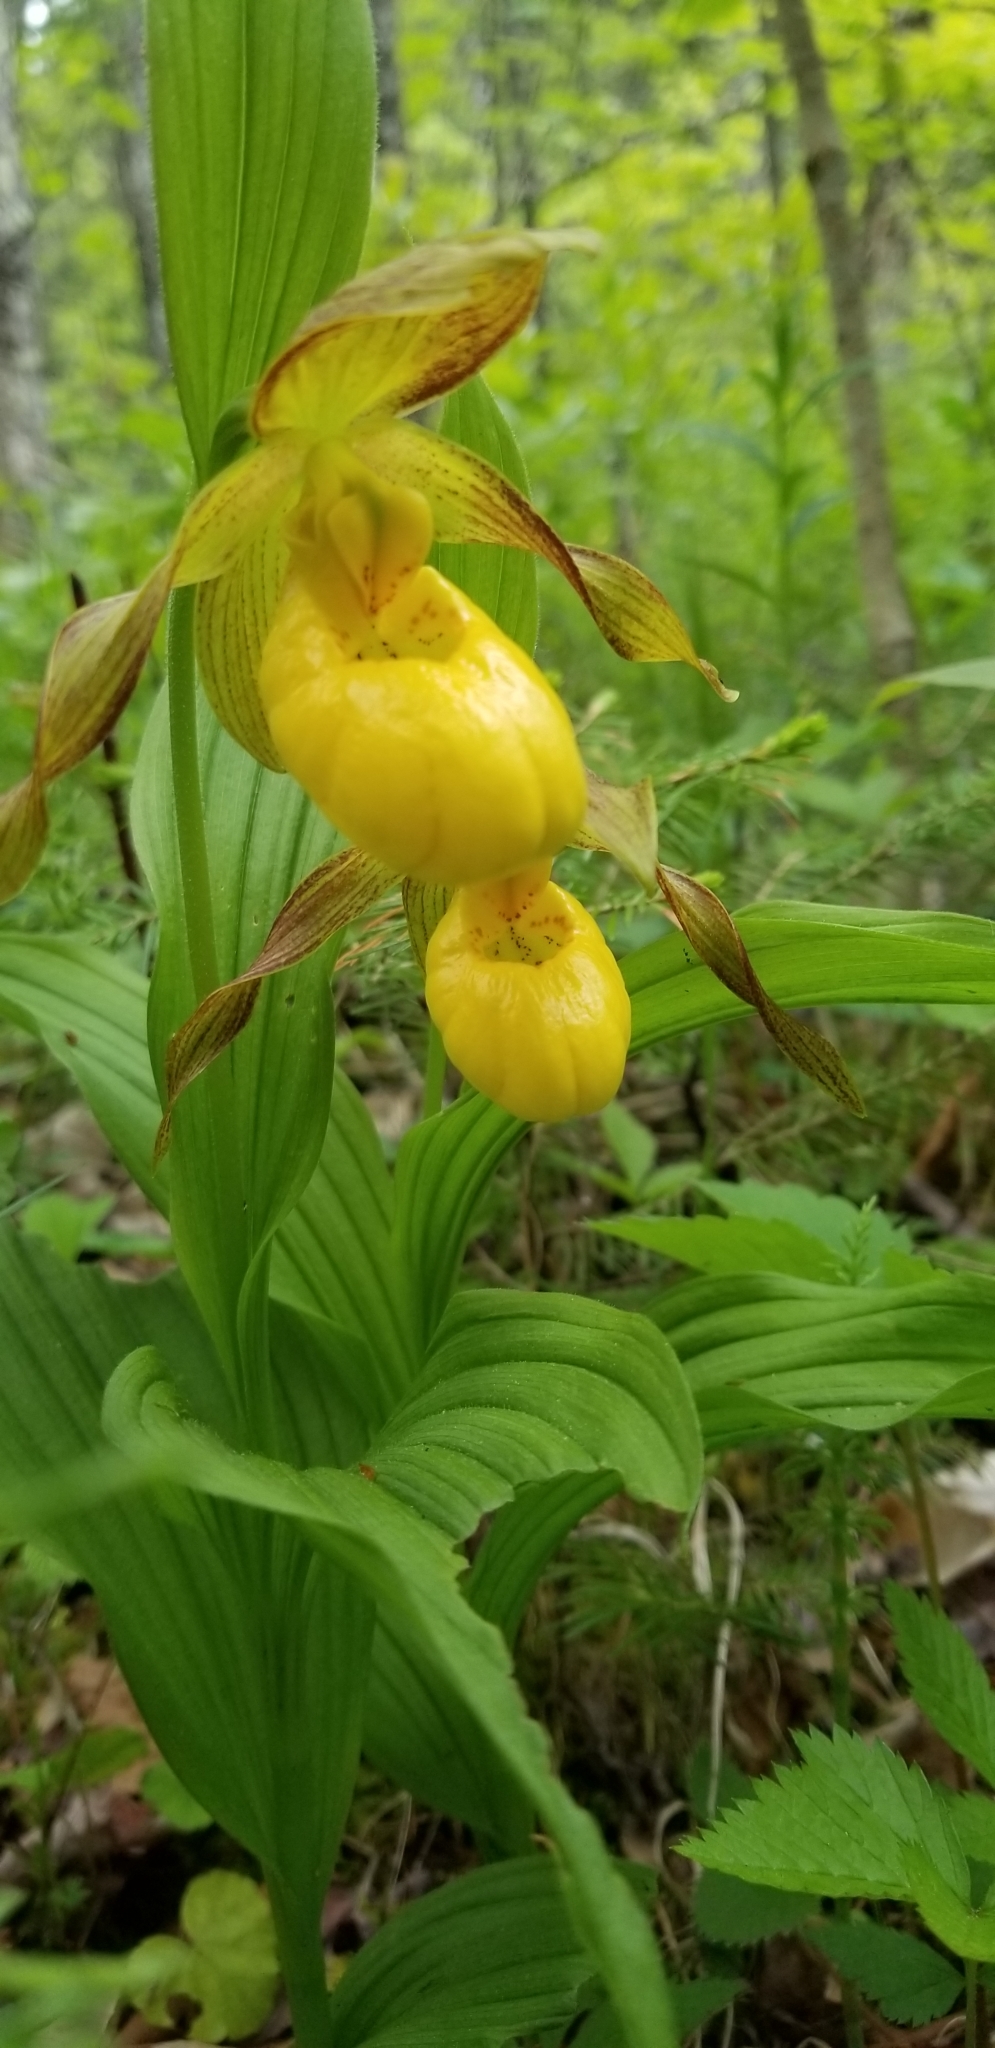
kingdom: Plantae
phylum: Tracheophyta
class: Liliopsida
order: Asparagales
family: Orchidaceae
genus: Cypripedium
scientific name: Cypripedium parviflorum
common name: American yellow lady's-slipper
